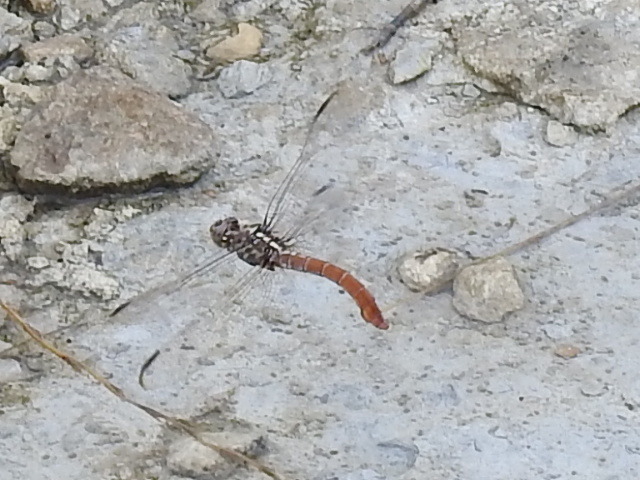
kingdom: Animalia
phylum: Arthropoda
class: Insecta
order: Odonata
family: Libellulidae
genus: Orthemis
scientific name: Orthemis ferruginea
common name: Roseate skimmer
